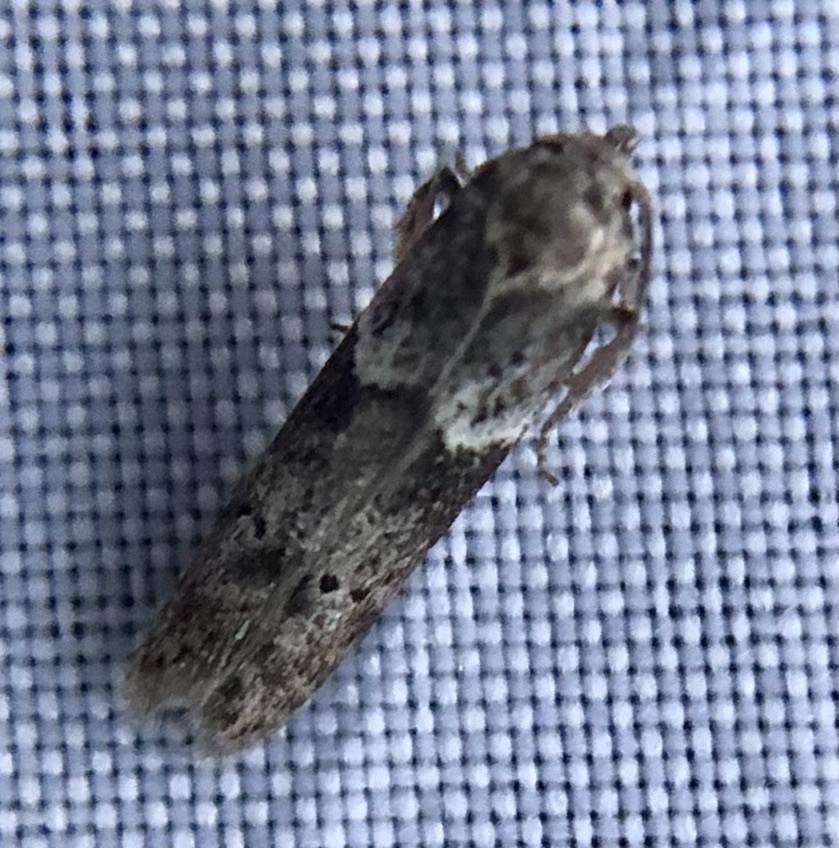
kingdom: Animalia
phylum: Arthropoda
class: Insecta
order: Lepidoptera
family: Blastobasidae
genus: Blastobasis
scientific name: Blastobasis glandulella
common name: Acorn moth
